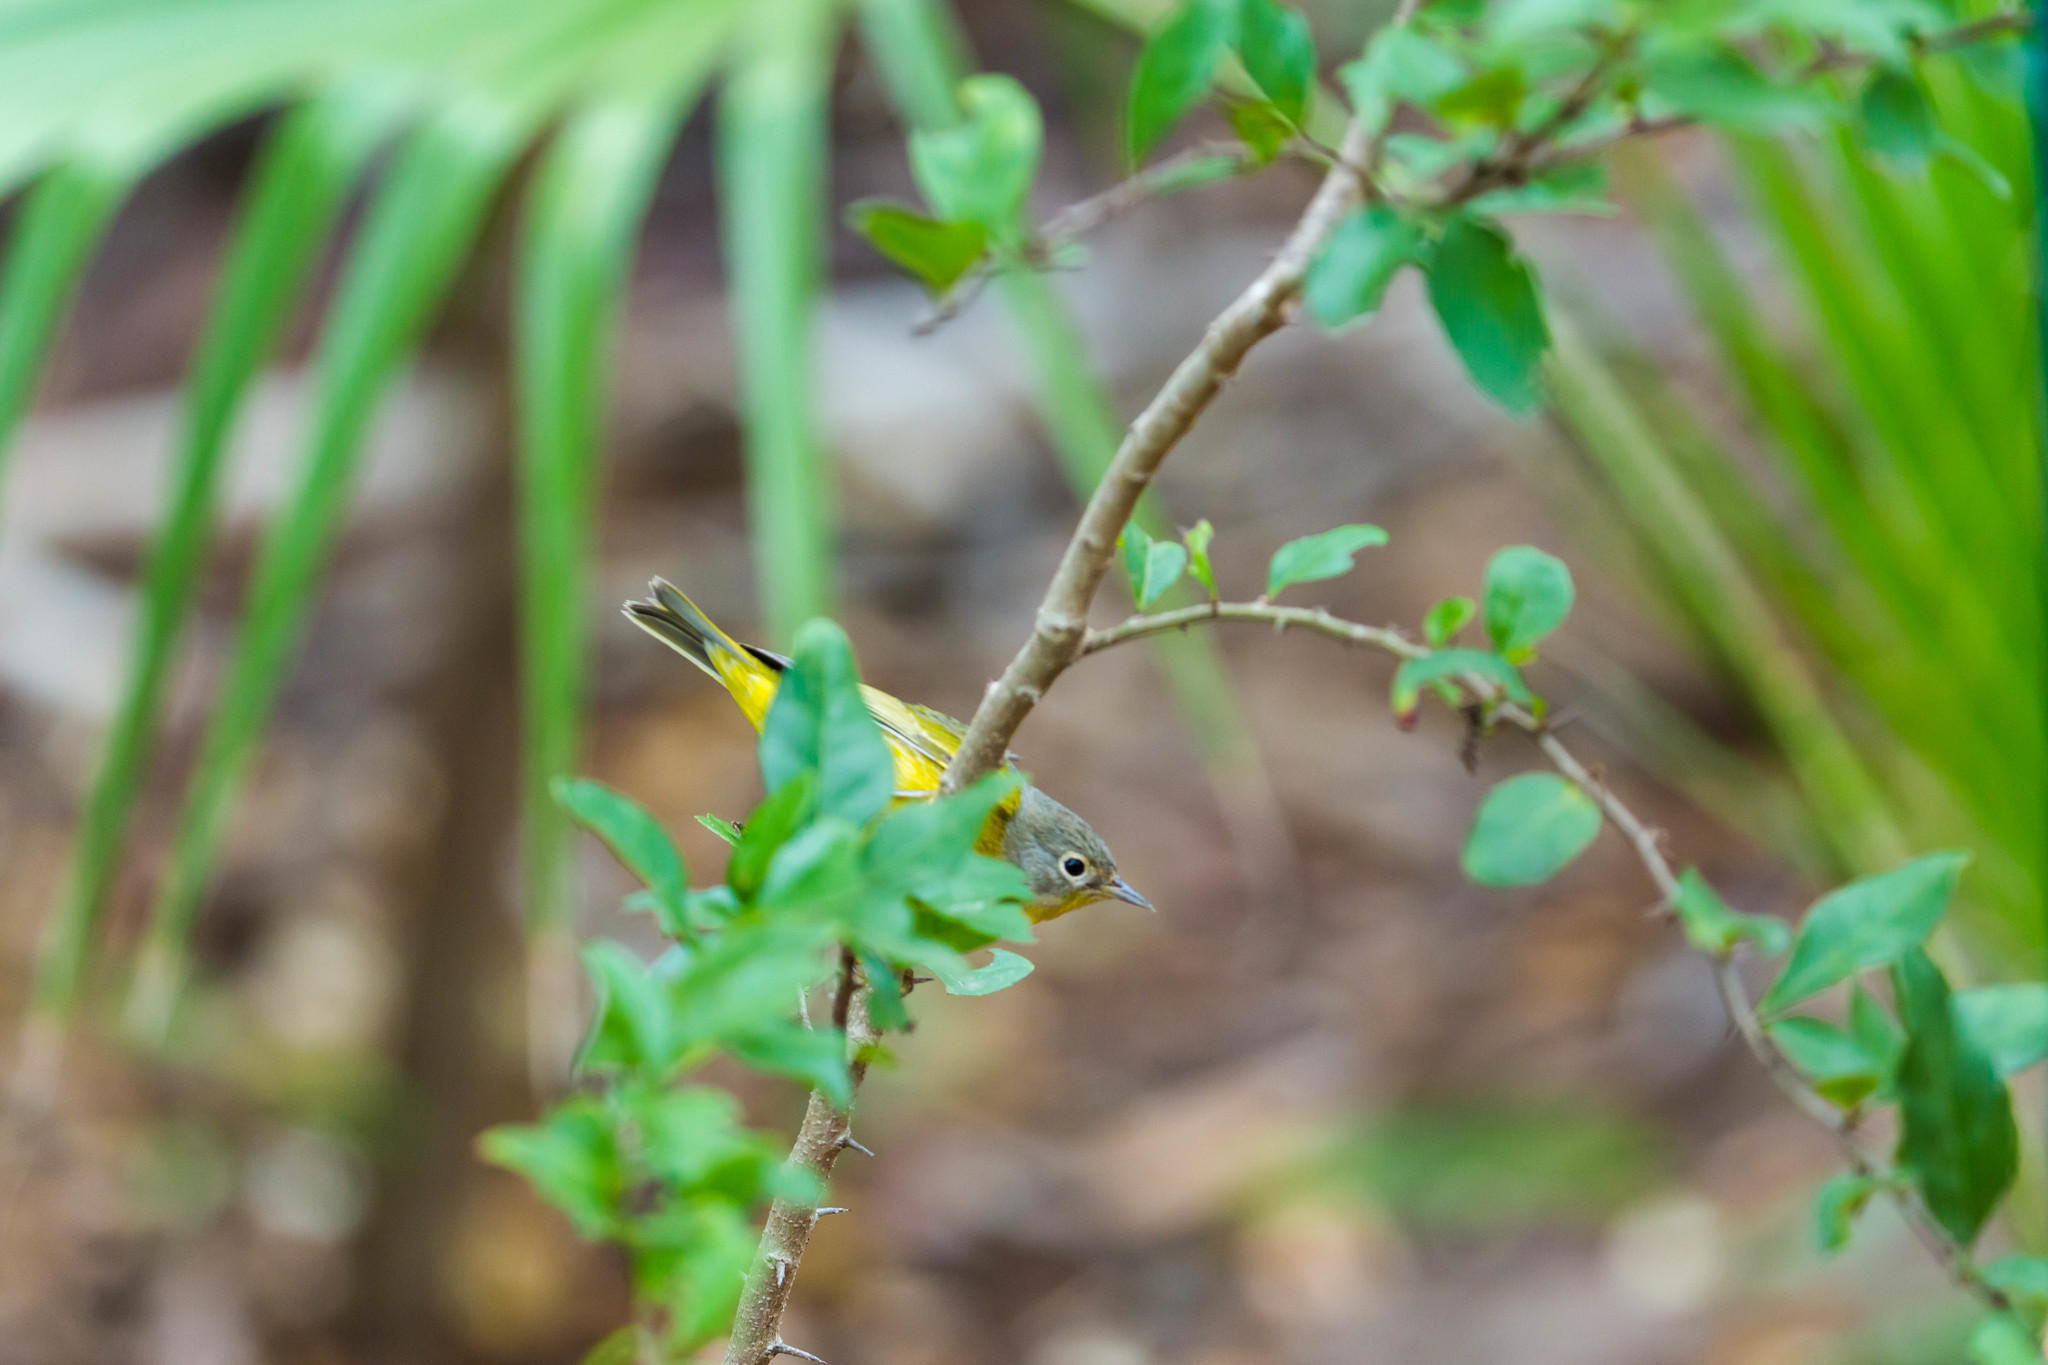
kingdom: Animalia
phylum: Chordata
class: Aves
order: Passeriformes
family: Parulidae
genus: Leiothlypis
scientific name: Leiothlypis ruficapilla
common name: Nashville warbler
